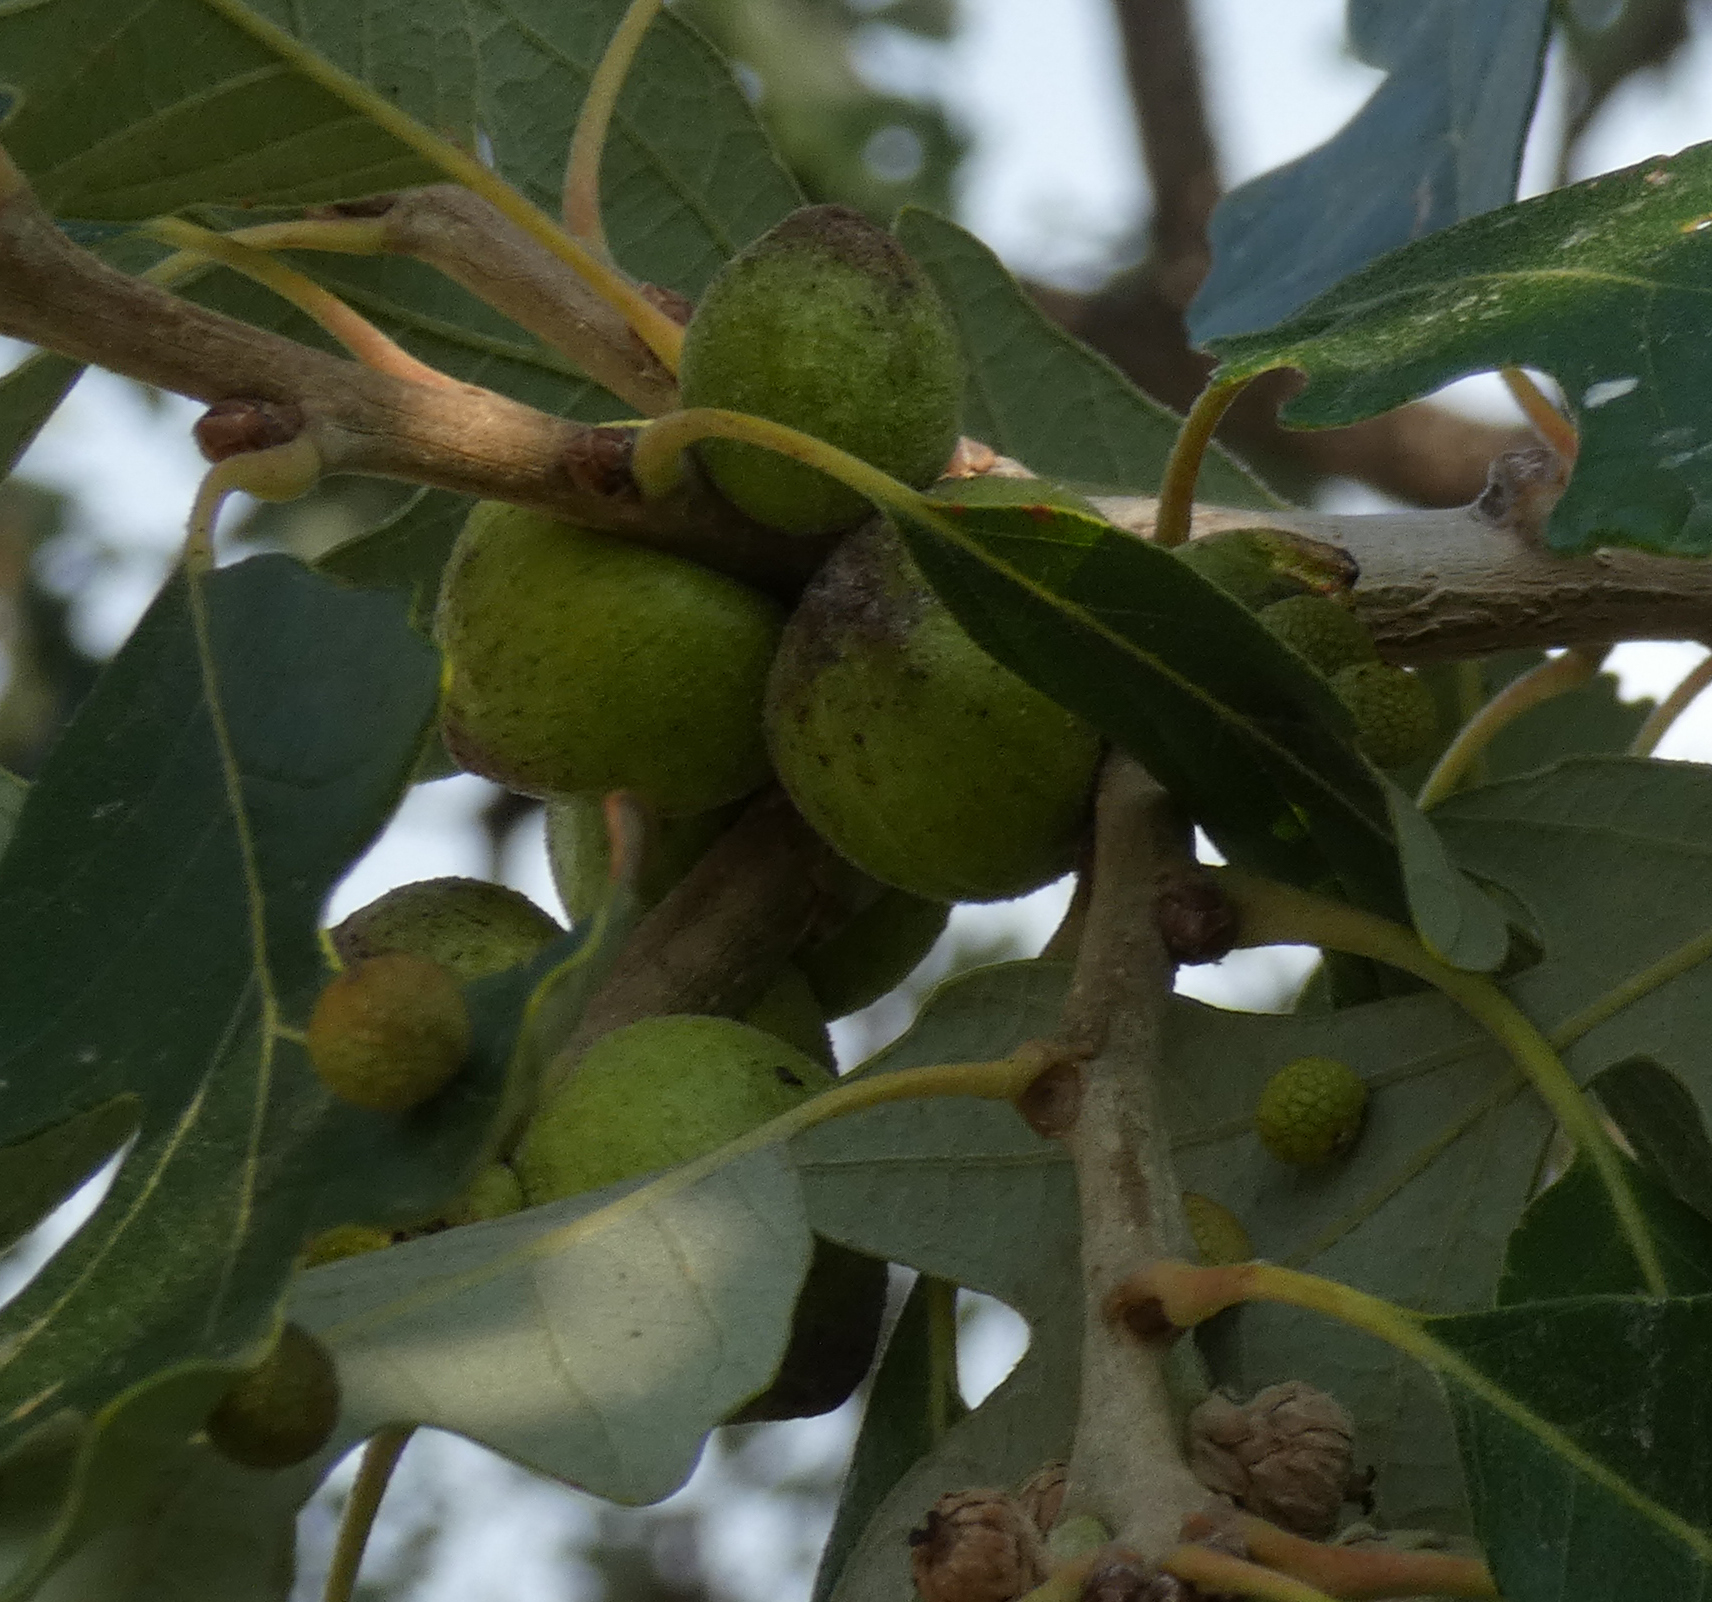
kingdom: Animalia
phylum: Arthropoda
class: Insecta
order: Hymenoptera
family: Cynipidae
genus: Disholcaspis
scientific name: Disholcaspis
